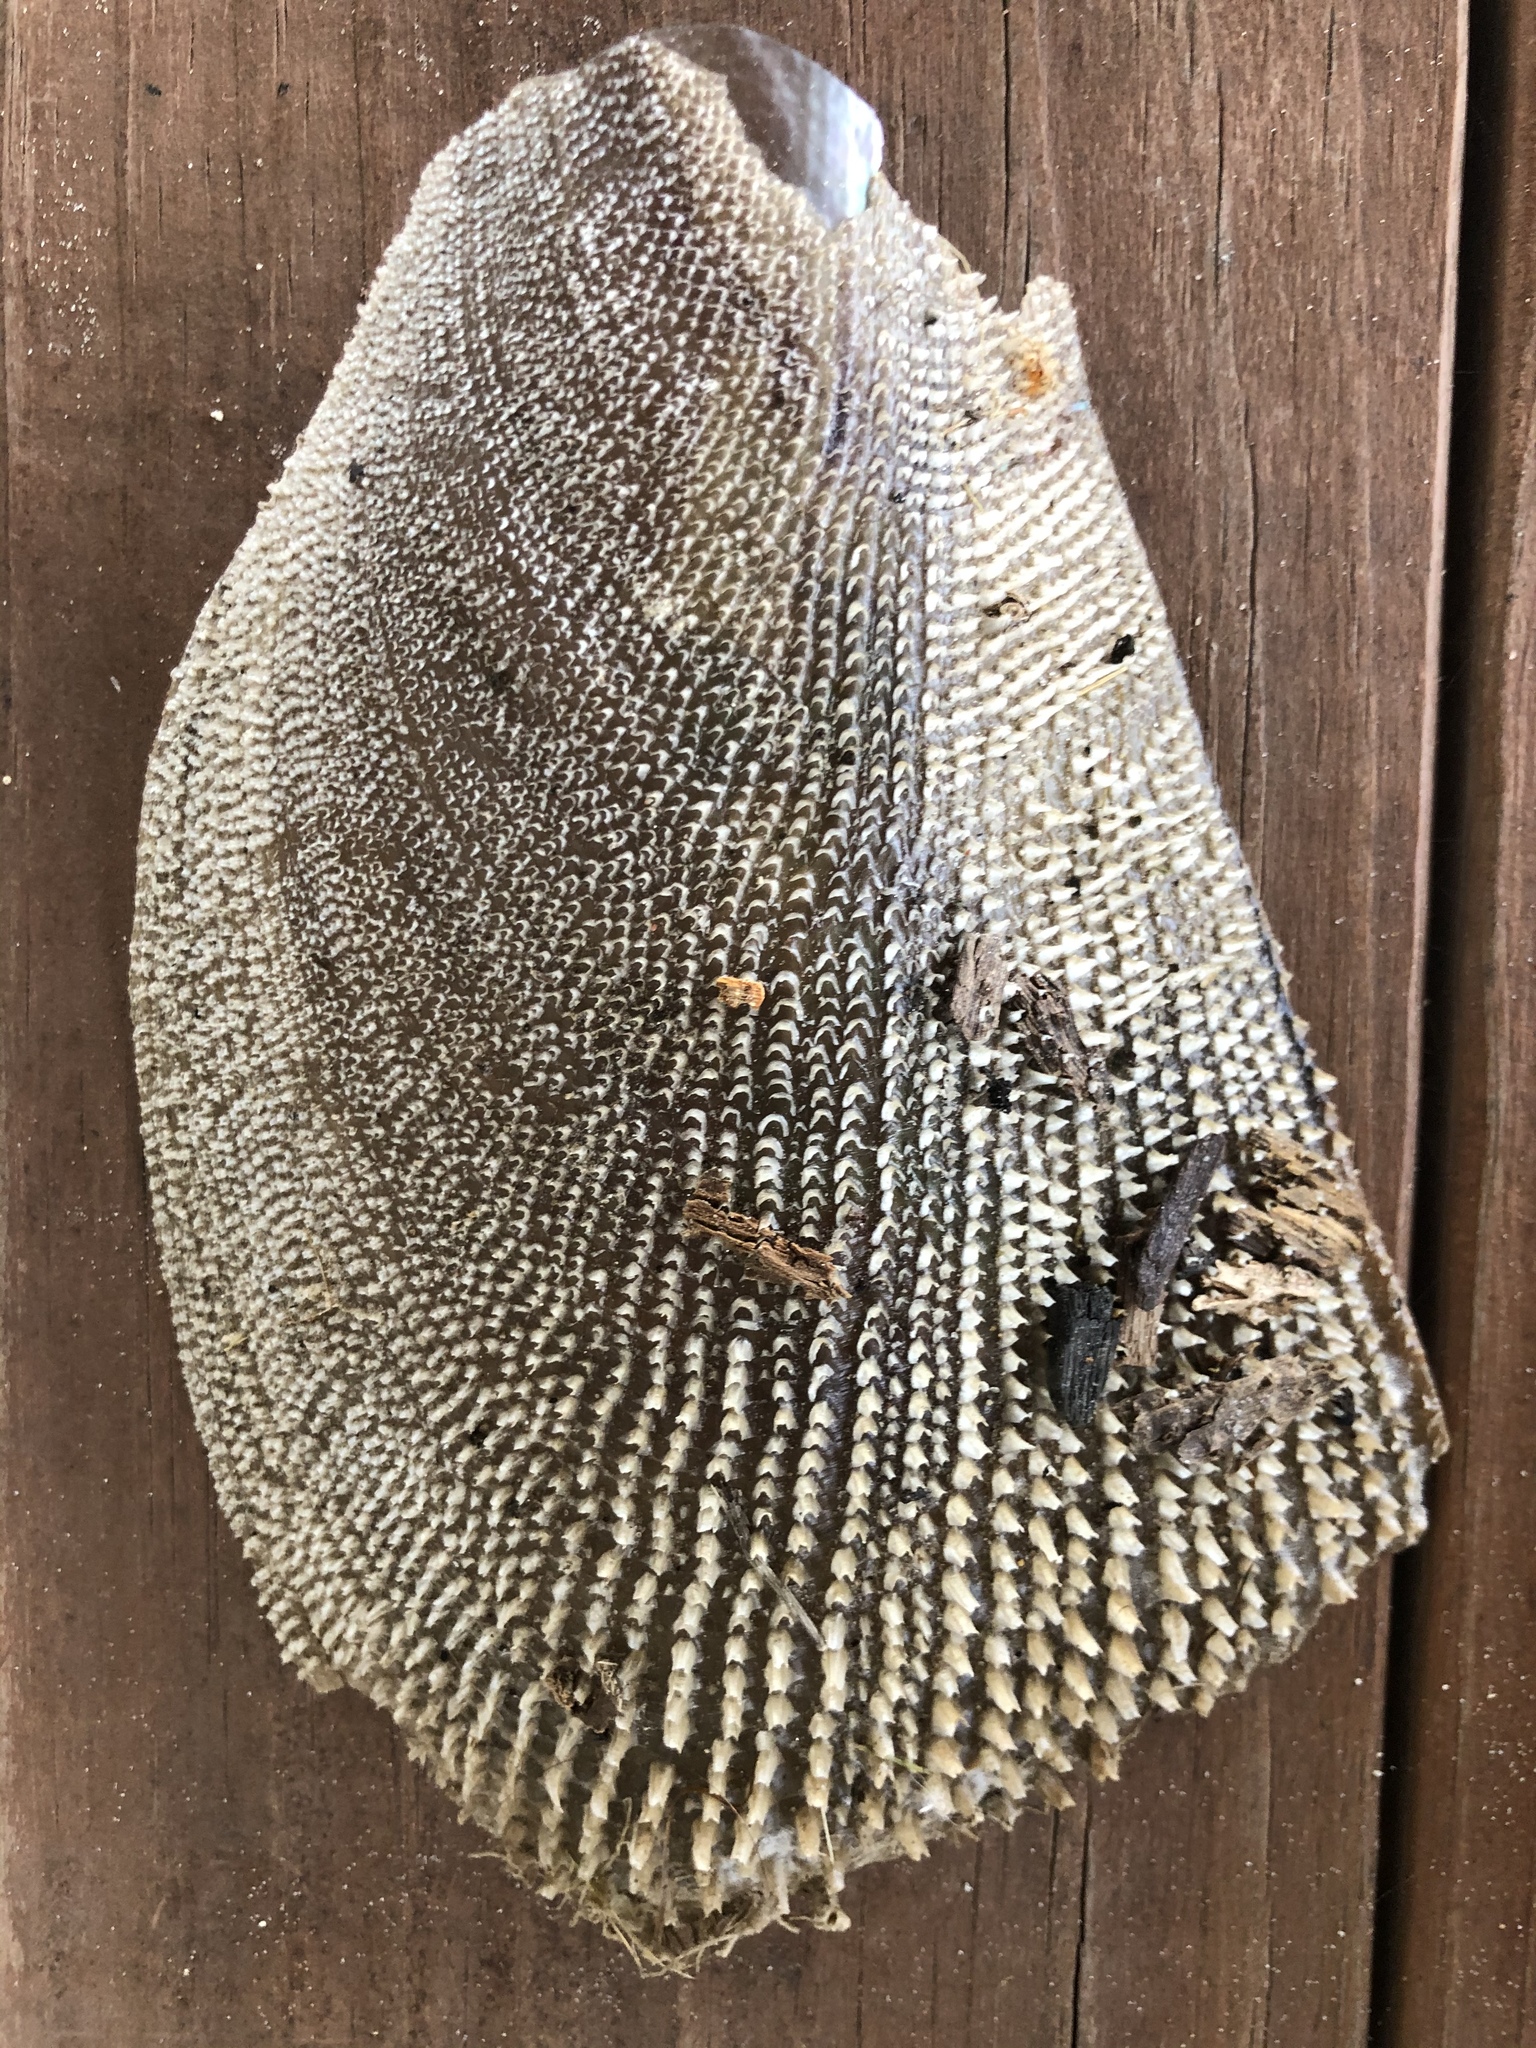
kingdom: Animalia
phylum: Mollusca
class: Bivalvia
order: Ostreida
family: Pinnidae
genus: Atrina
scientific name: Atrina serrata
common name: Saw-toothed penshell
